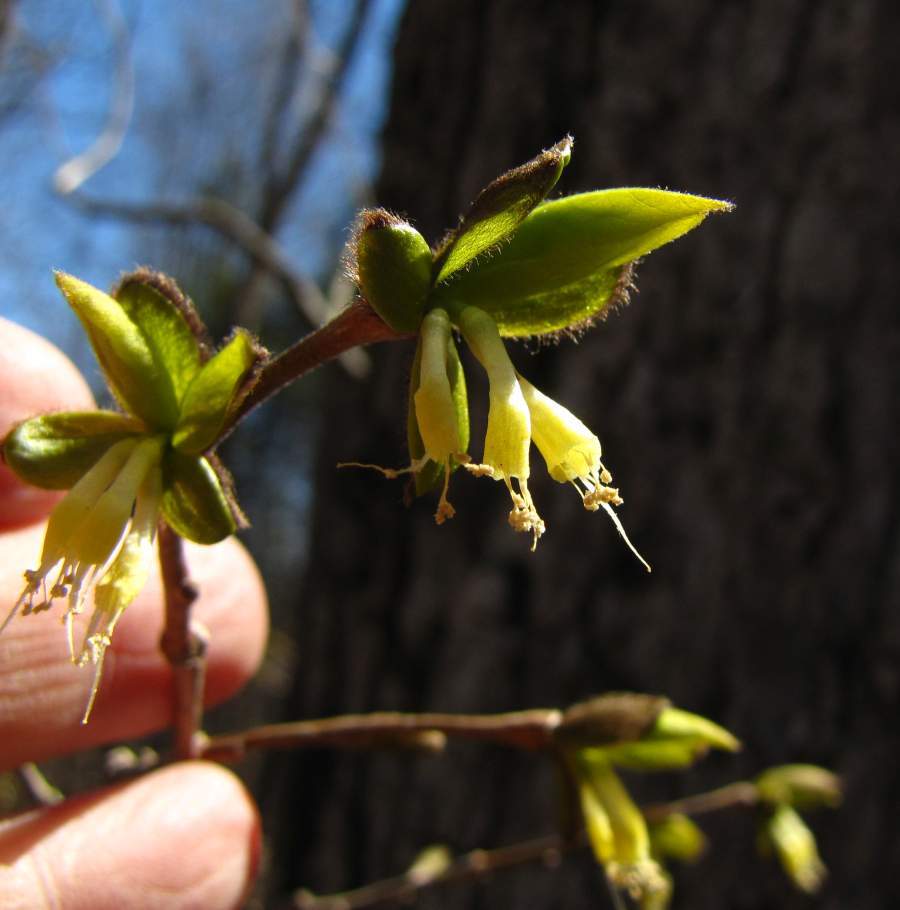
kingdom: Plantae
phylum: Tracheophyta
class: Magnoliopsida
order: Malvales
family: Thymelaeaceae
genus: Dirca
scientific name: Dirca palustris
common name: Leatherwood
